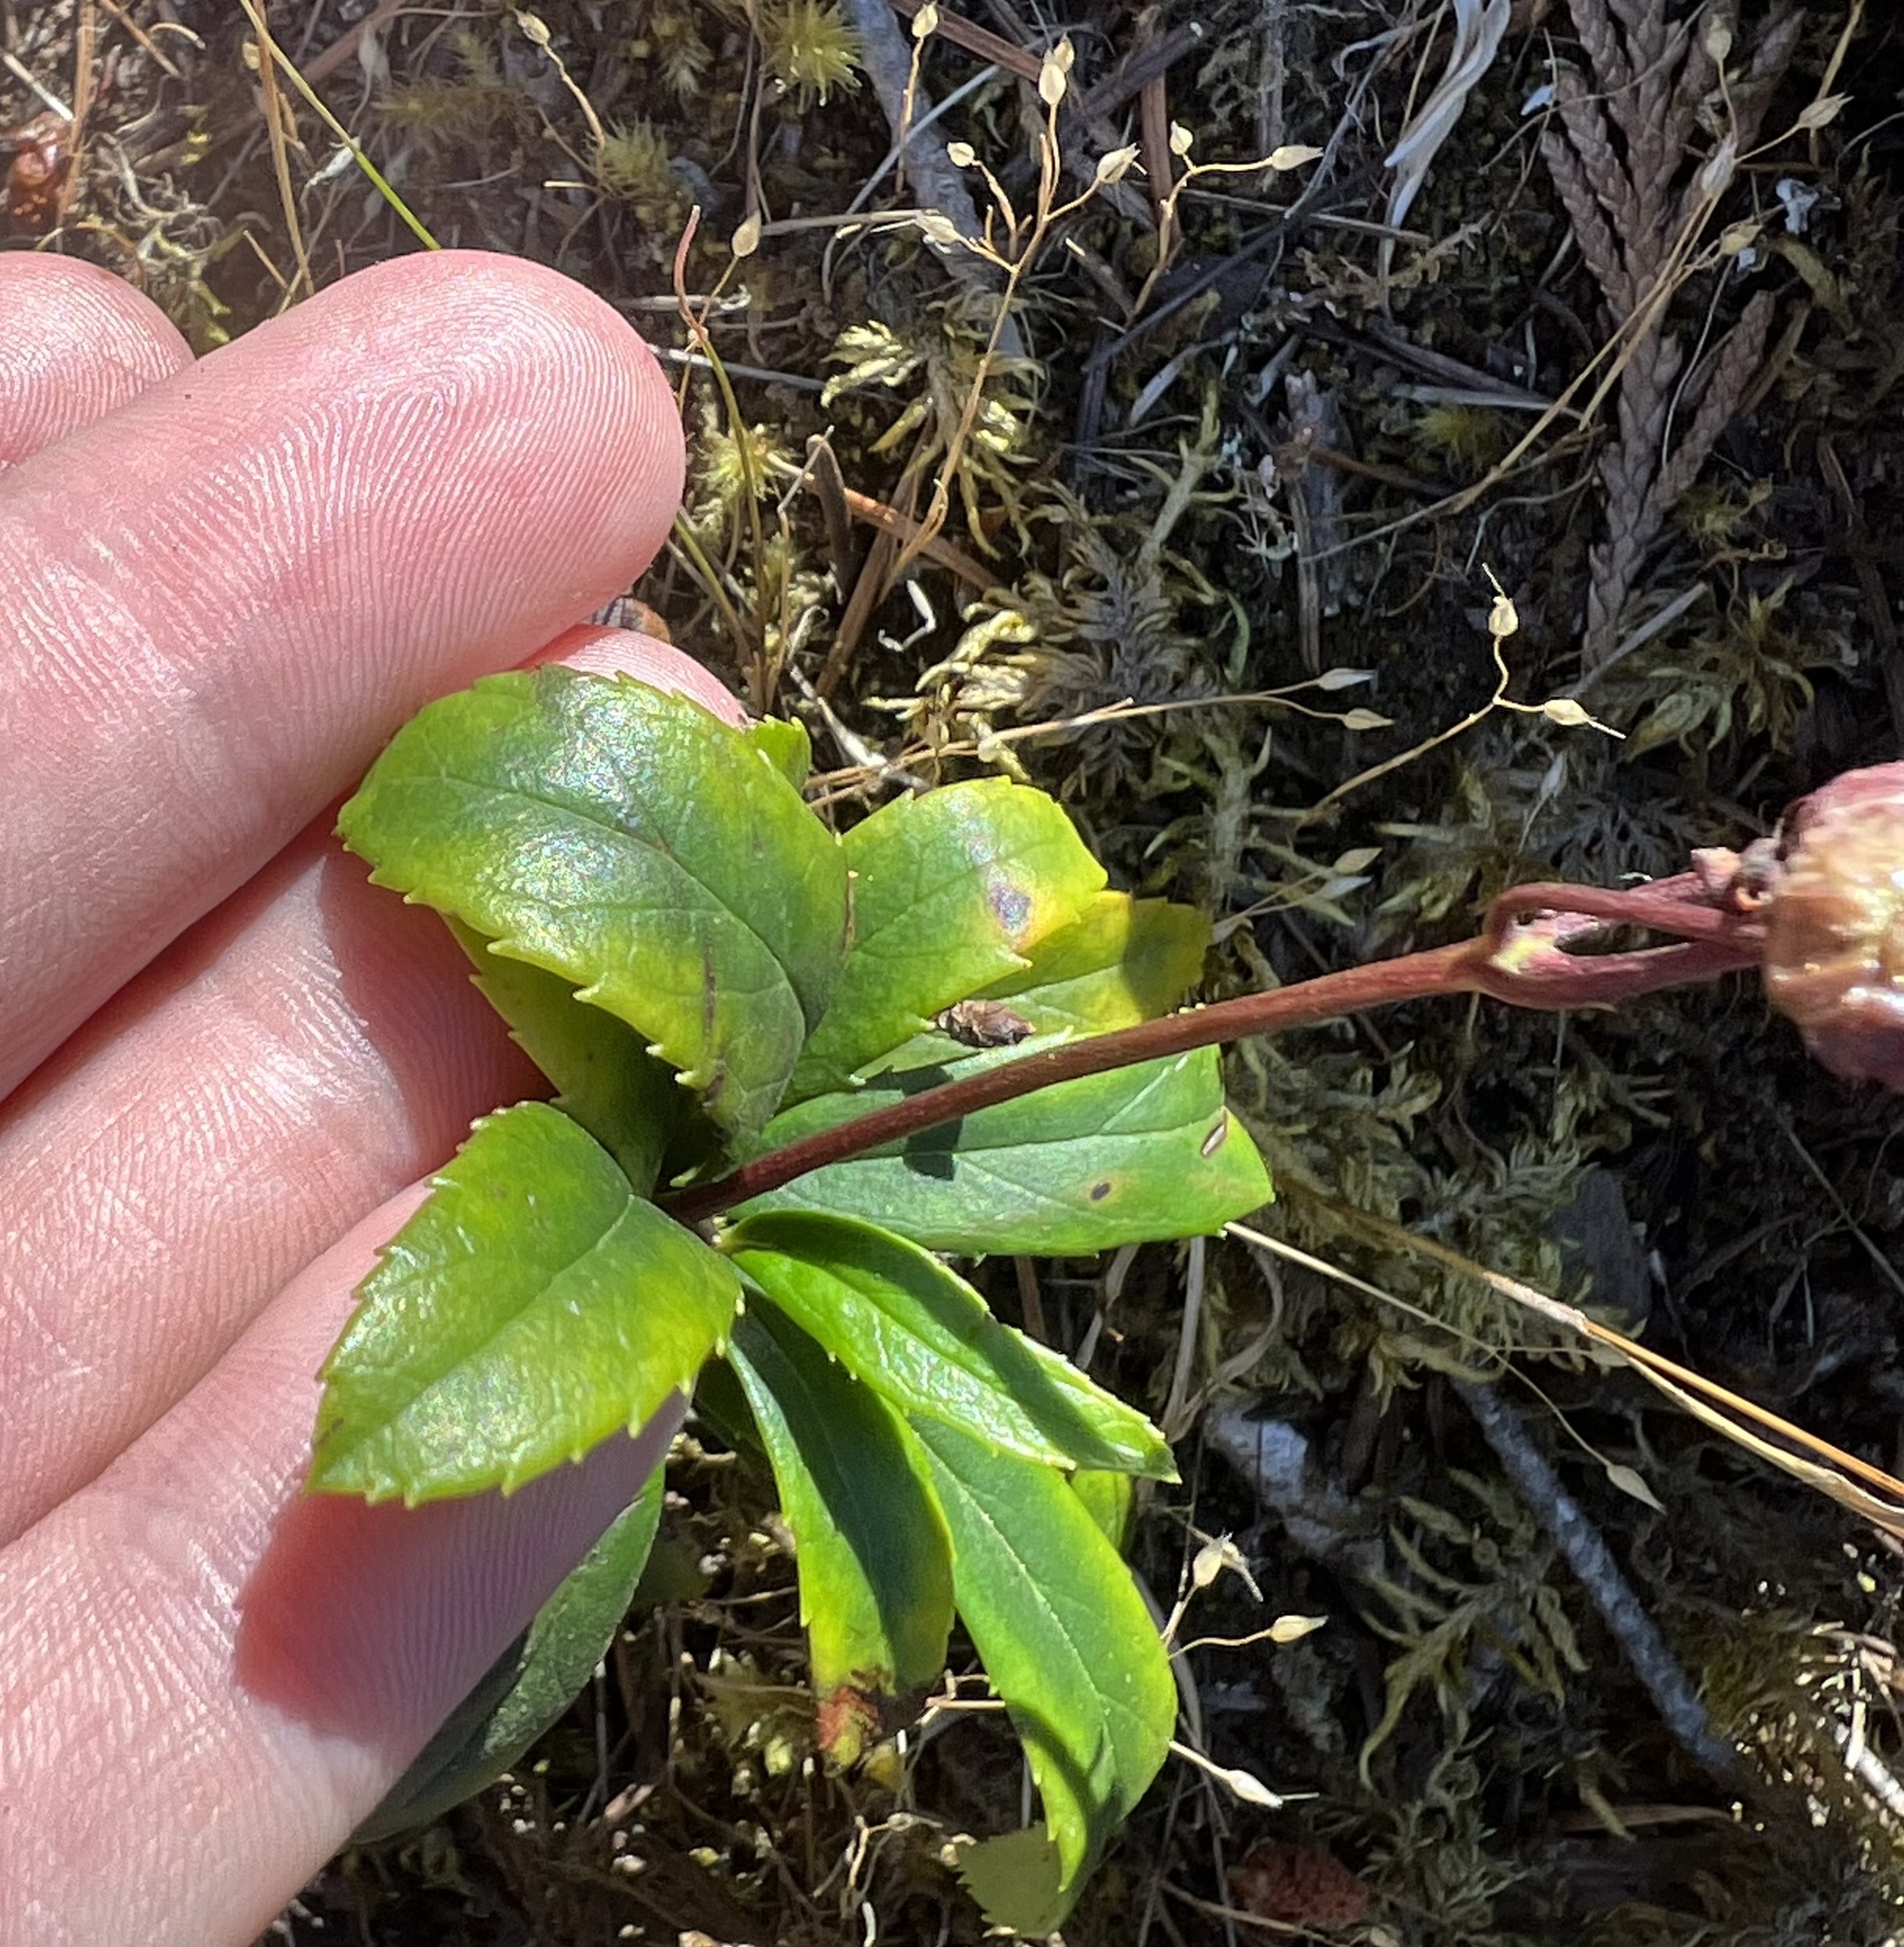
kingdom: Plantae
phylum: Tracheophyta
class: Magnoliopsida
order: Ericales
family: Ericaceae
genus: Chimaphila
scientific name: Chimaphila umbellata
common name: Pipsissewa
